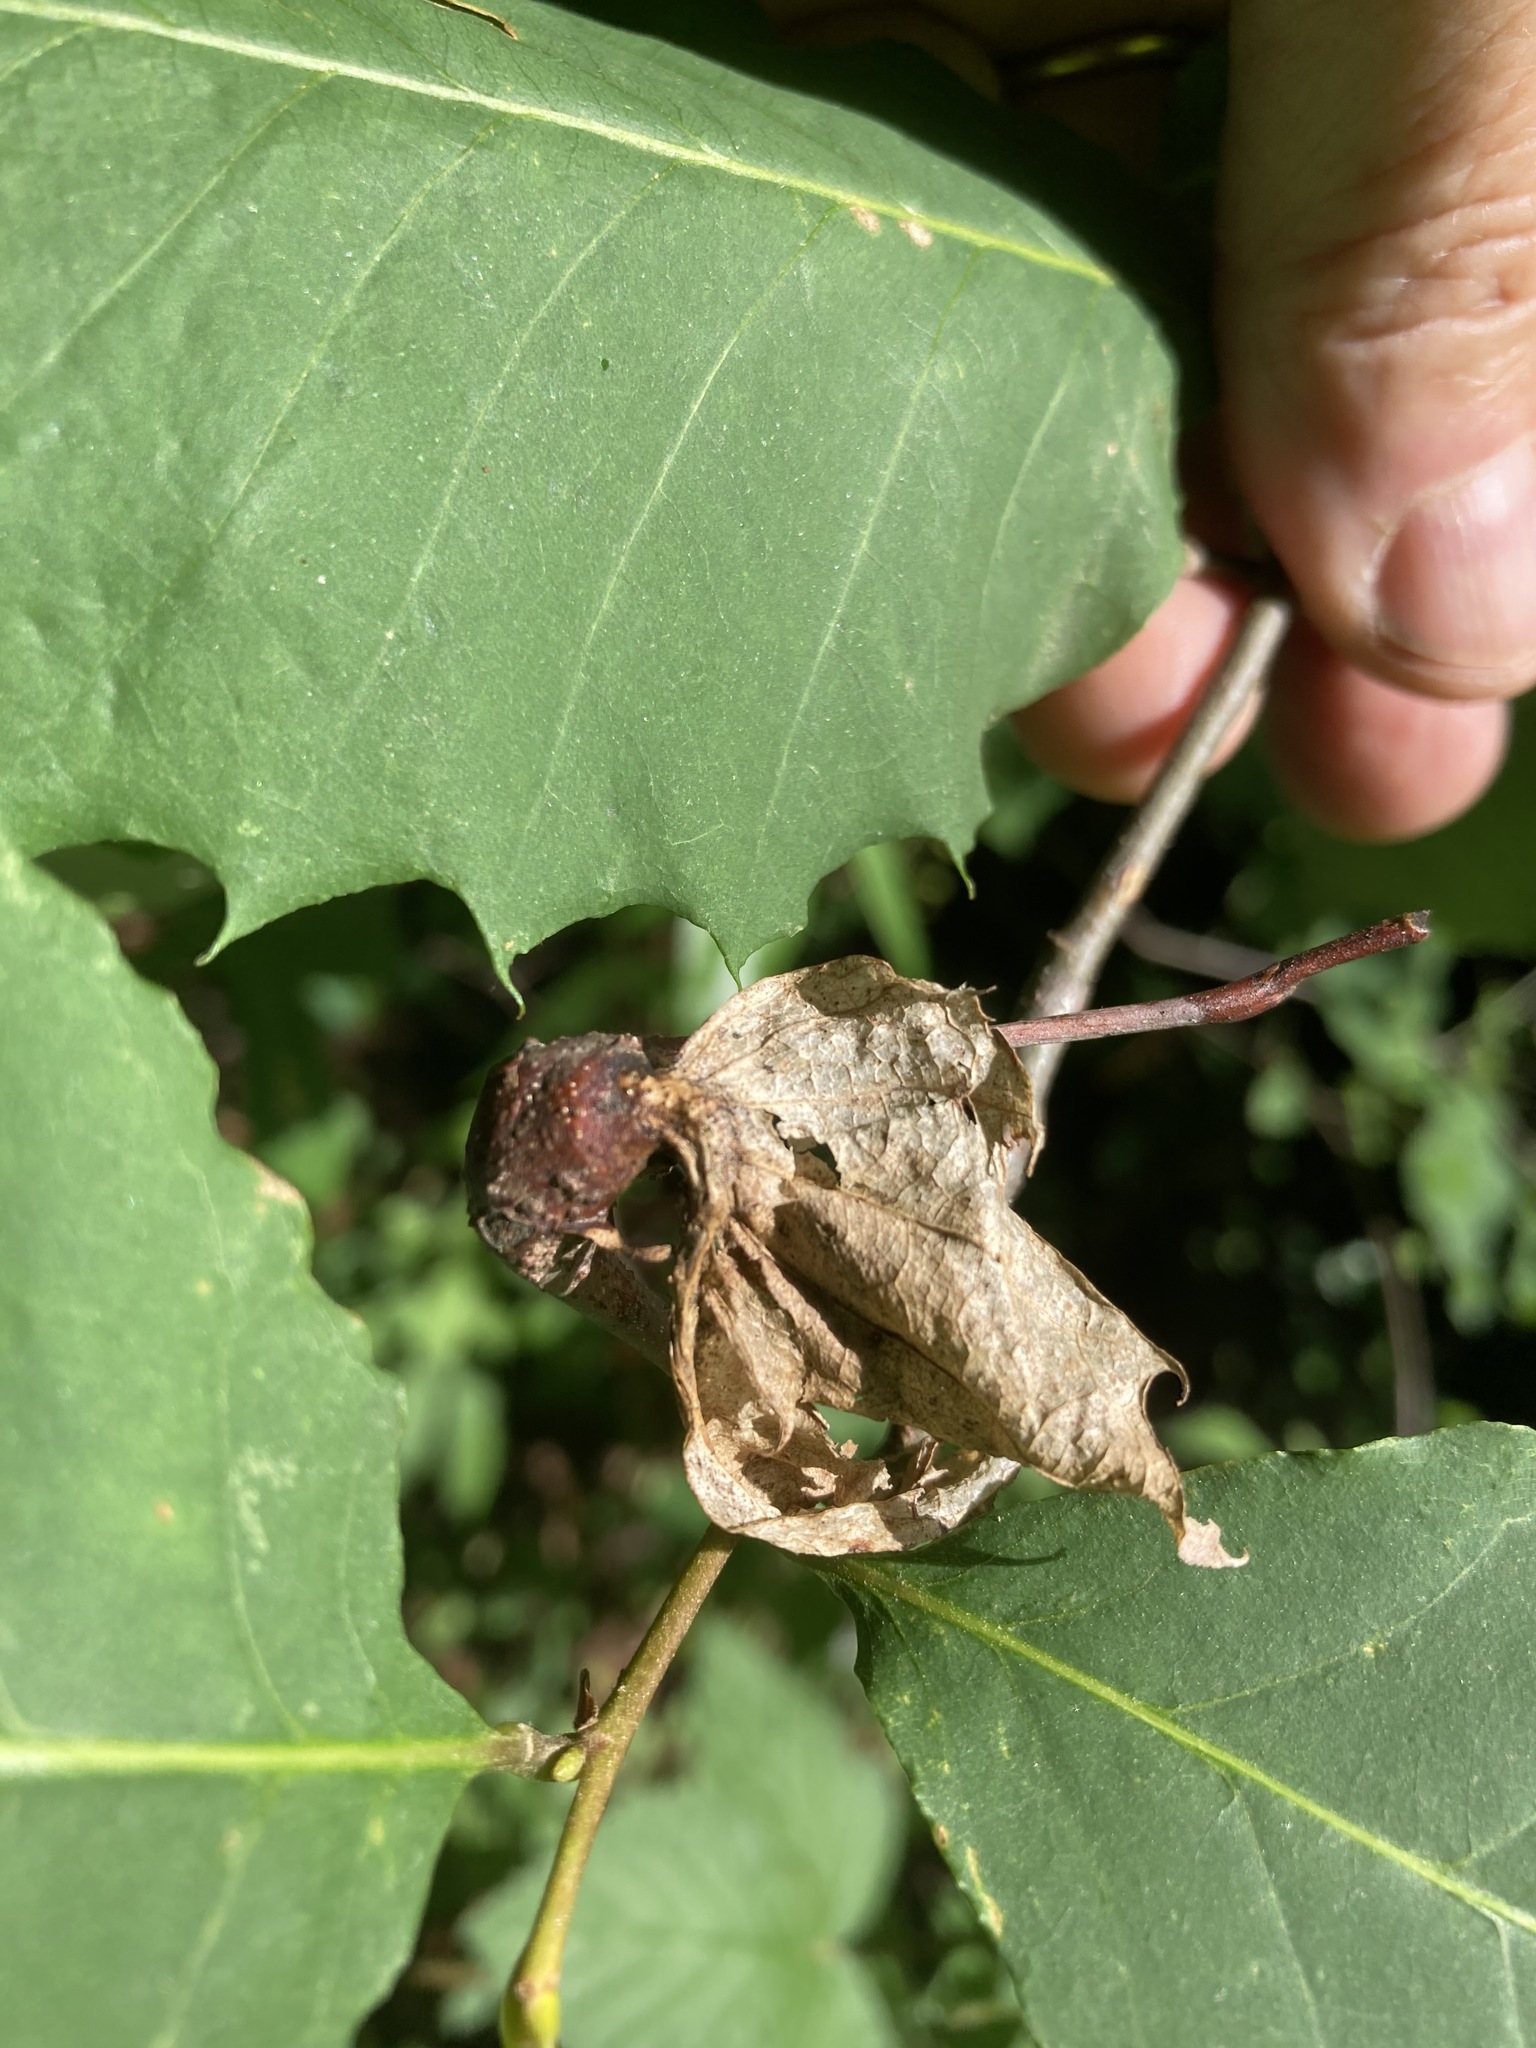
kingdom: Animalia
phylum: Arthropoda
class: Insecta
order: Hymenoptera
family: Cynipidae
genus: Dryocosmus
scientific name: Dryocosmus kuriphilus
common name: Asian chestnut gall wasp
